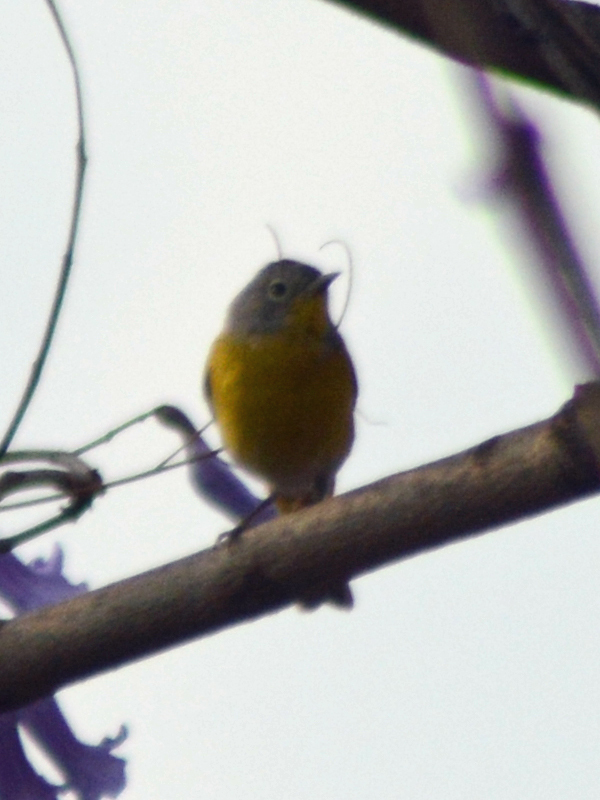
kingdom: Animalia
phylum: Chordata
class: Aves
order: Passeriformes
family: Parulidae
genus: Leiothlypis
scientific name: Leiothlypis ruficapilla
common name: Nashville warbler
